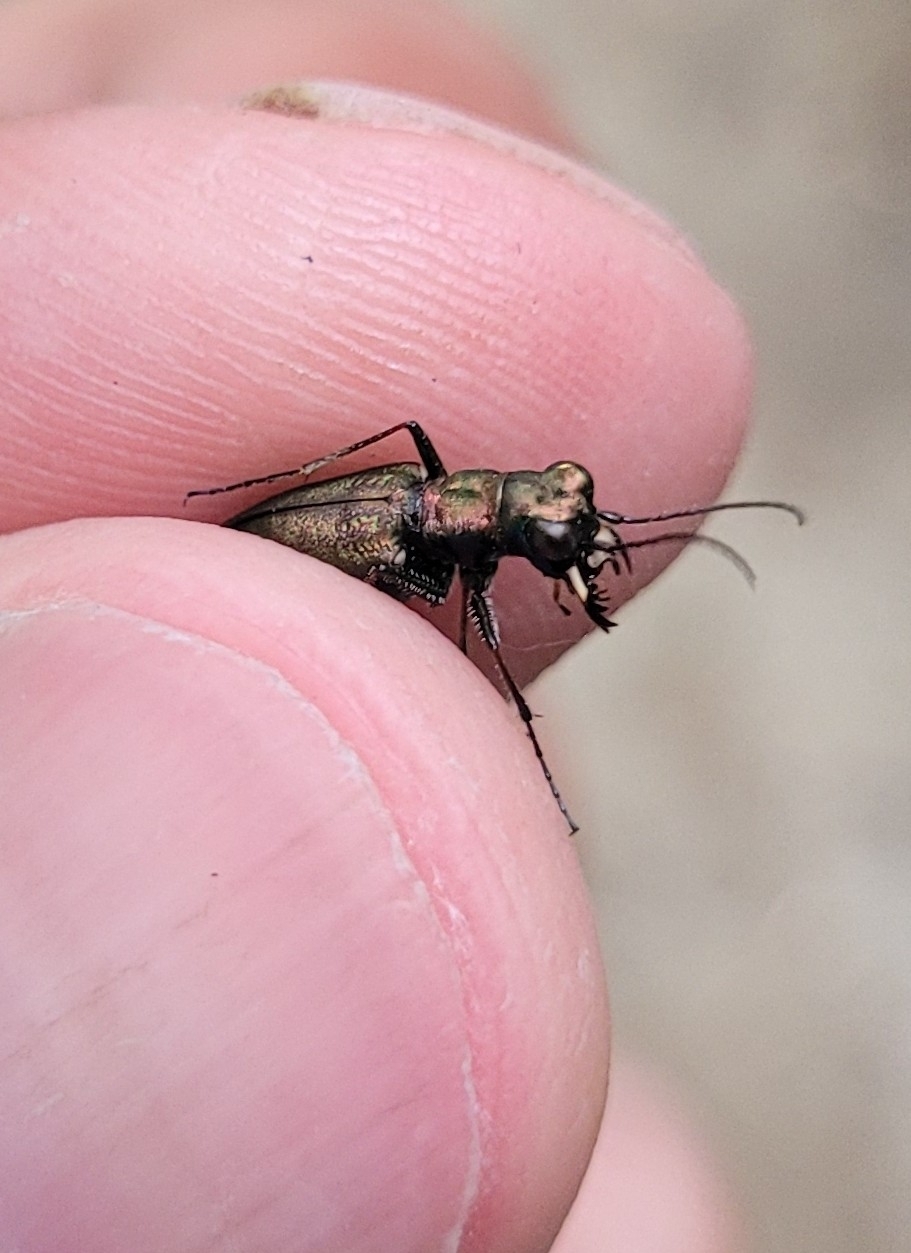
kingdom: Animalia
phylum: Arthropoda
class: Insecta
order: Coleoptera
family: Carabidae
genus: Cylindera
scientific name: Cylindera germanica
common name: Cliff tiger beetle
